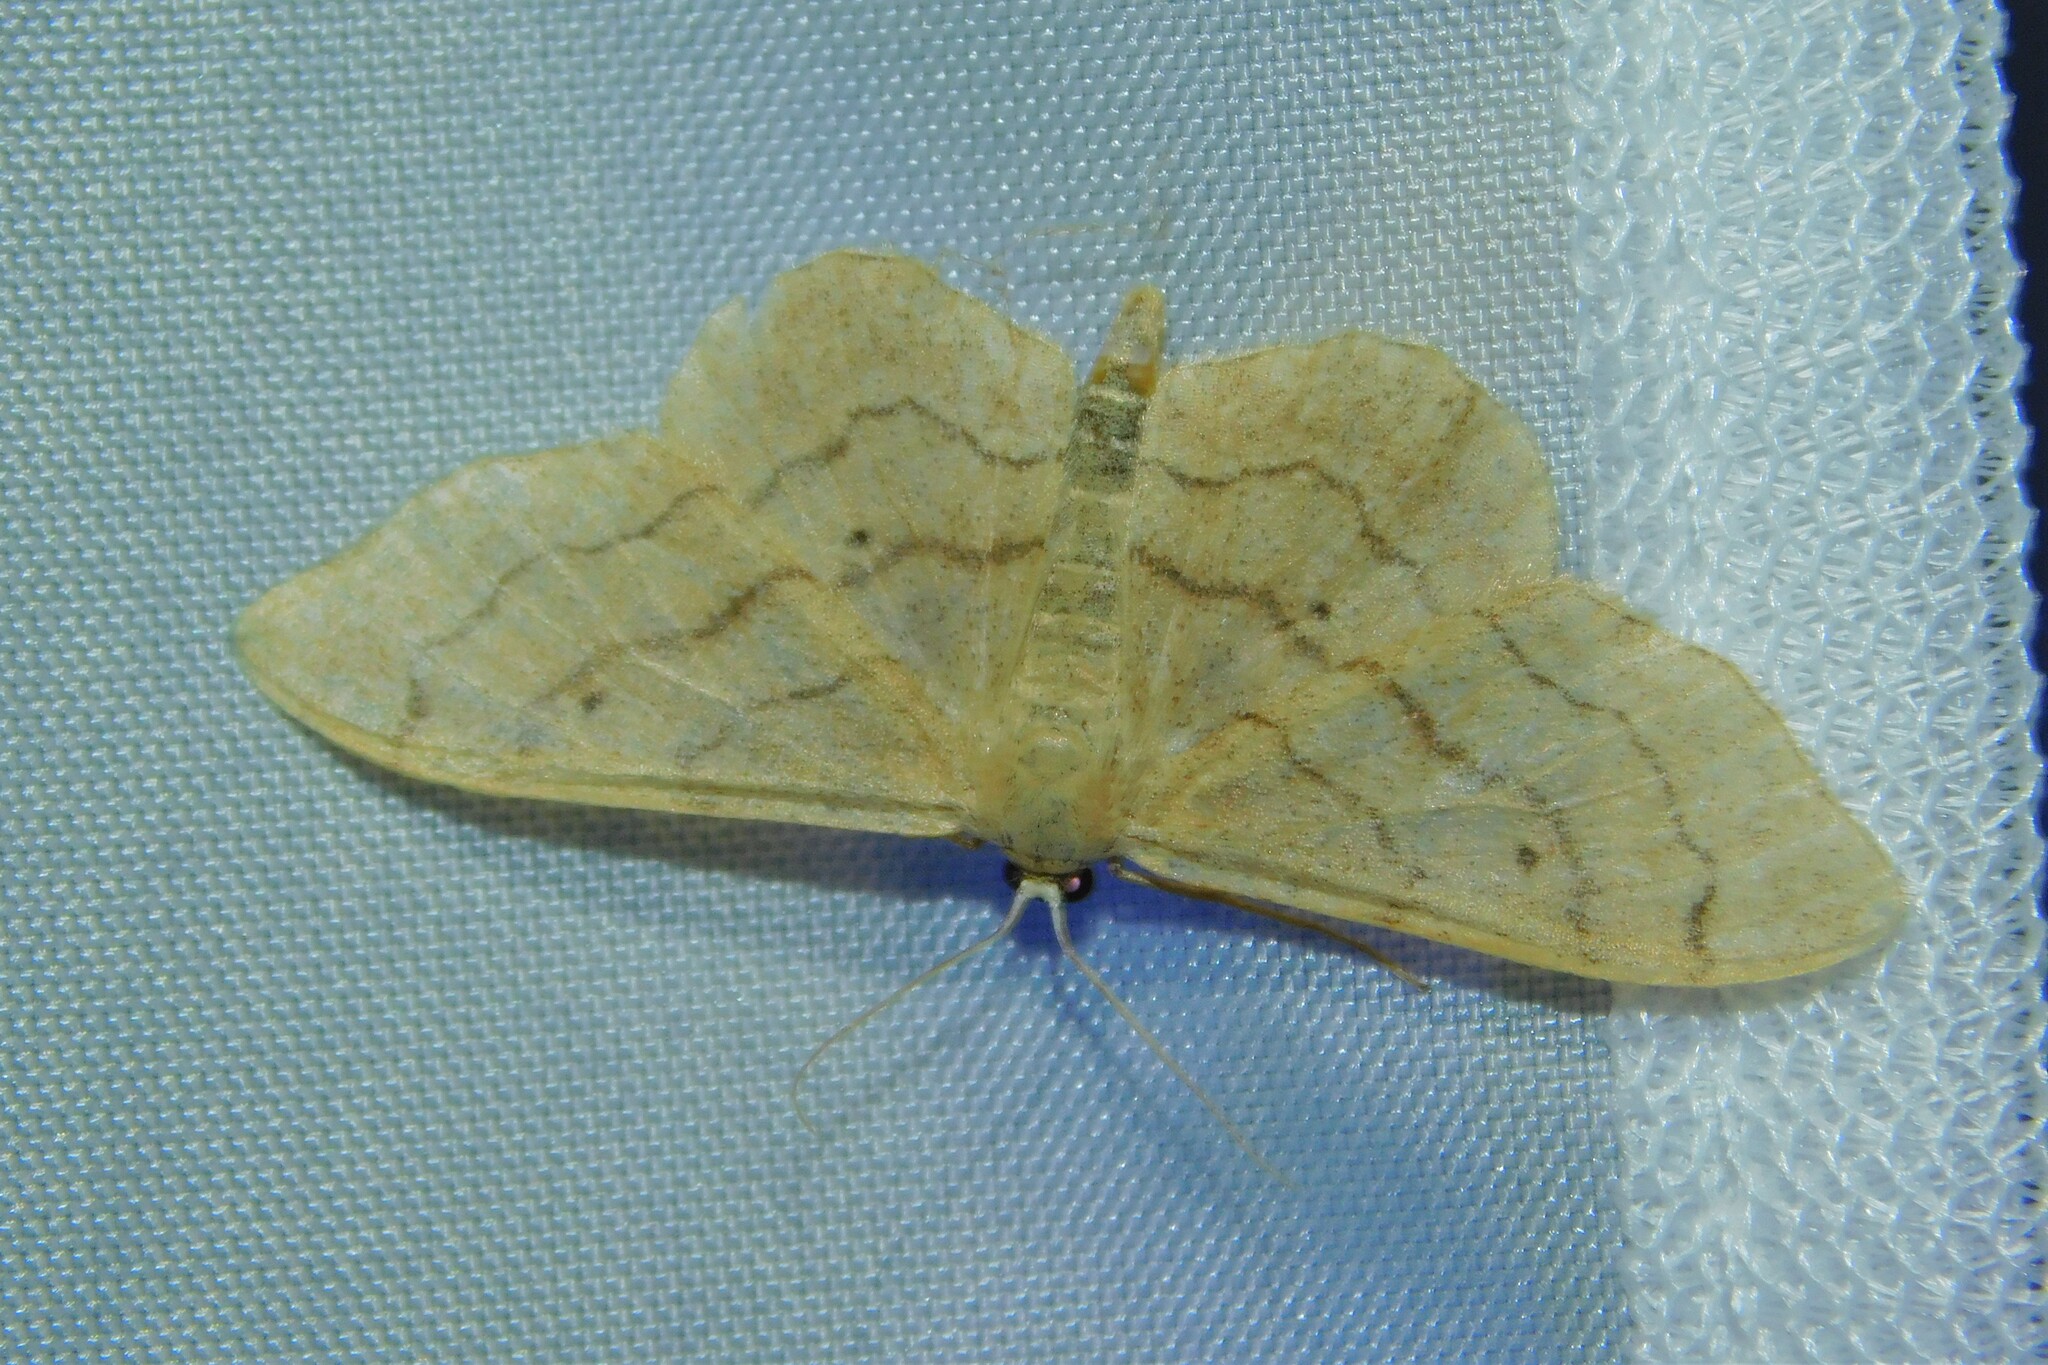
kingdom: Animalia
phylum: Arthropoda
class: Insecta
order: Lepidoptera
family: Geometridae
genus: Idaea
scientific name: Idaea aversata
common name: Riband wave
